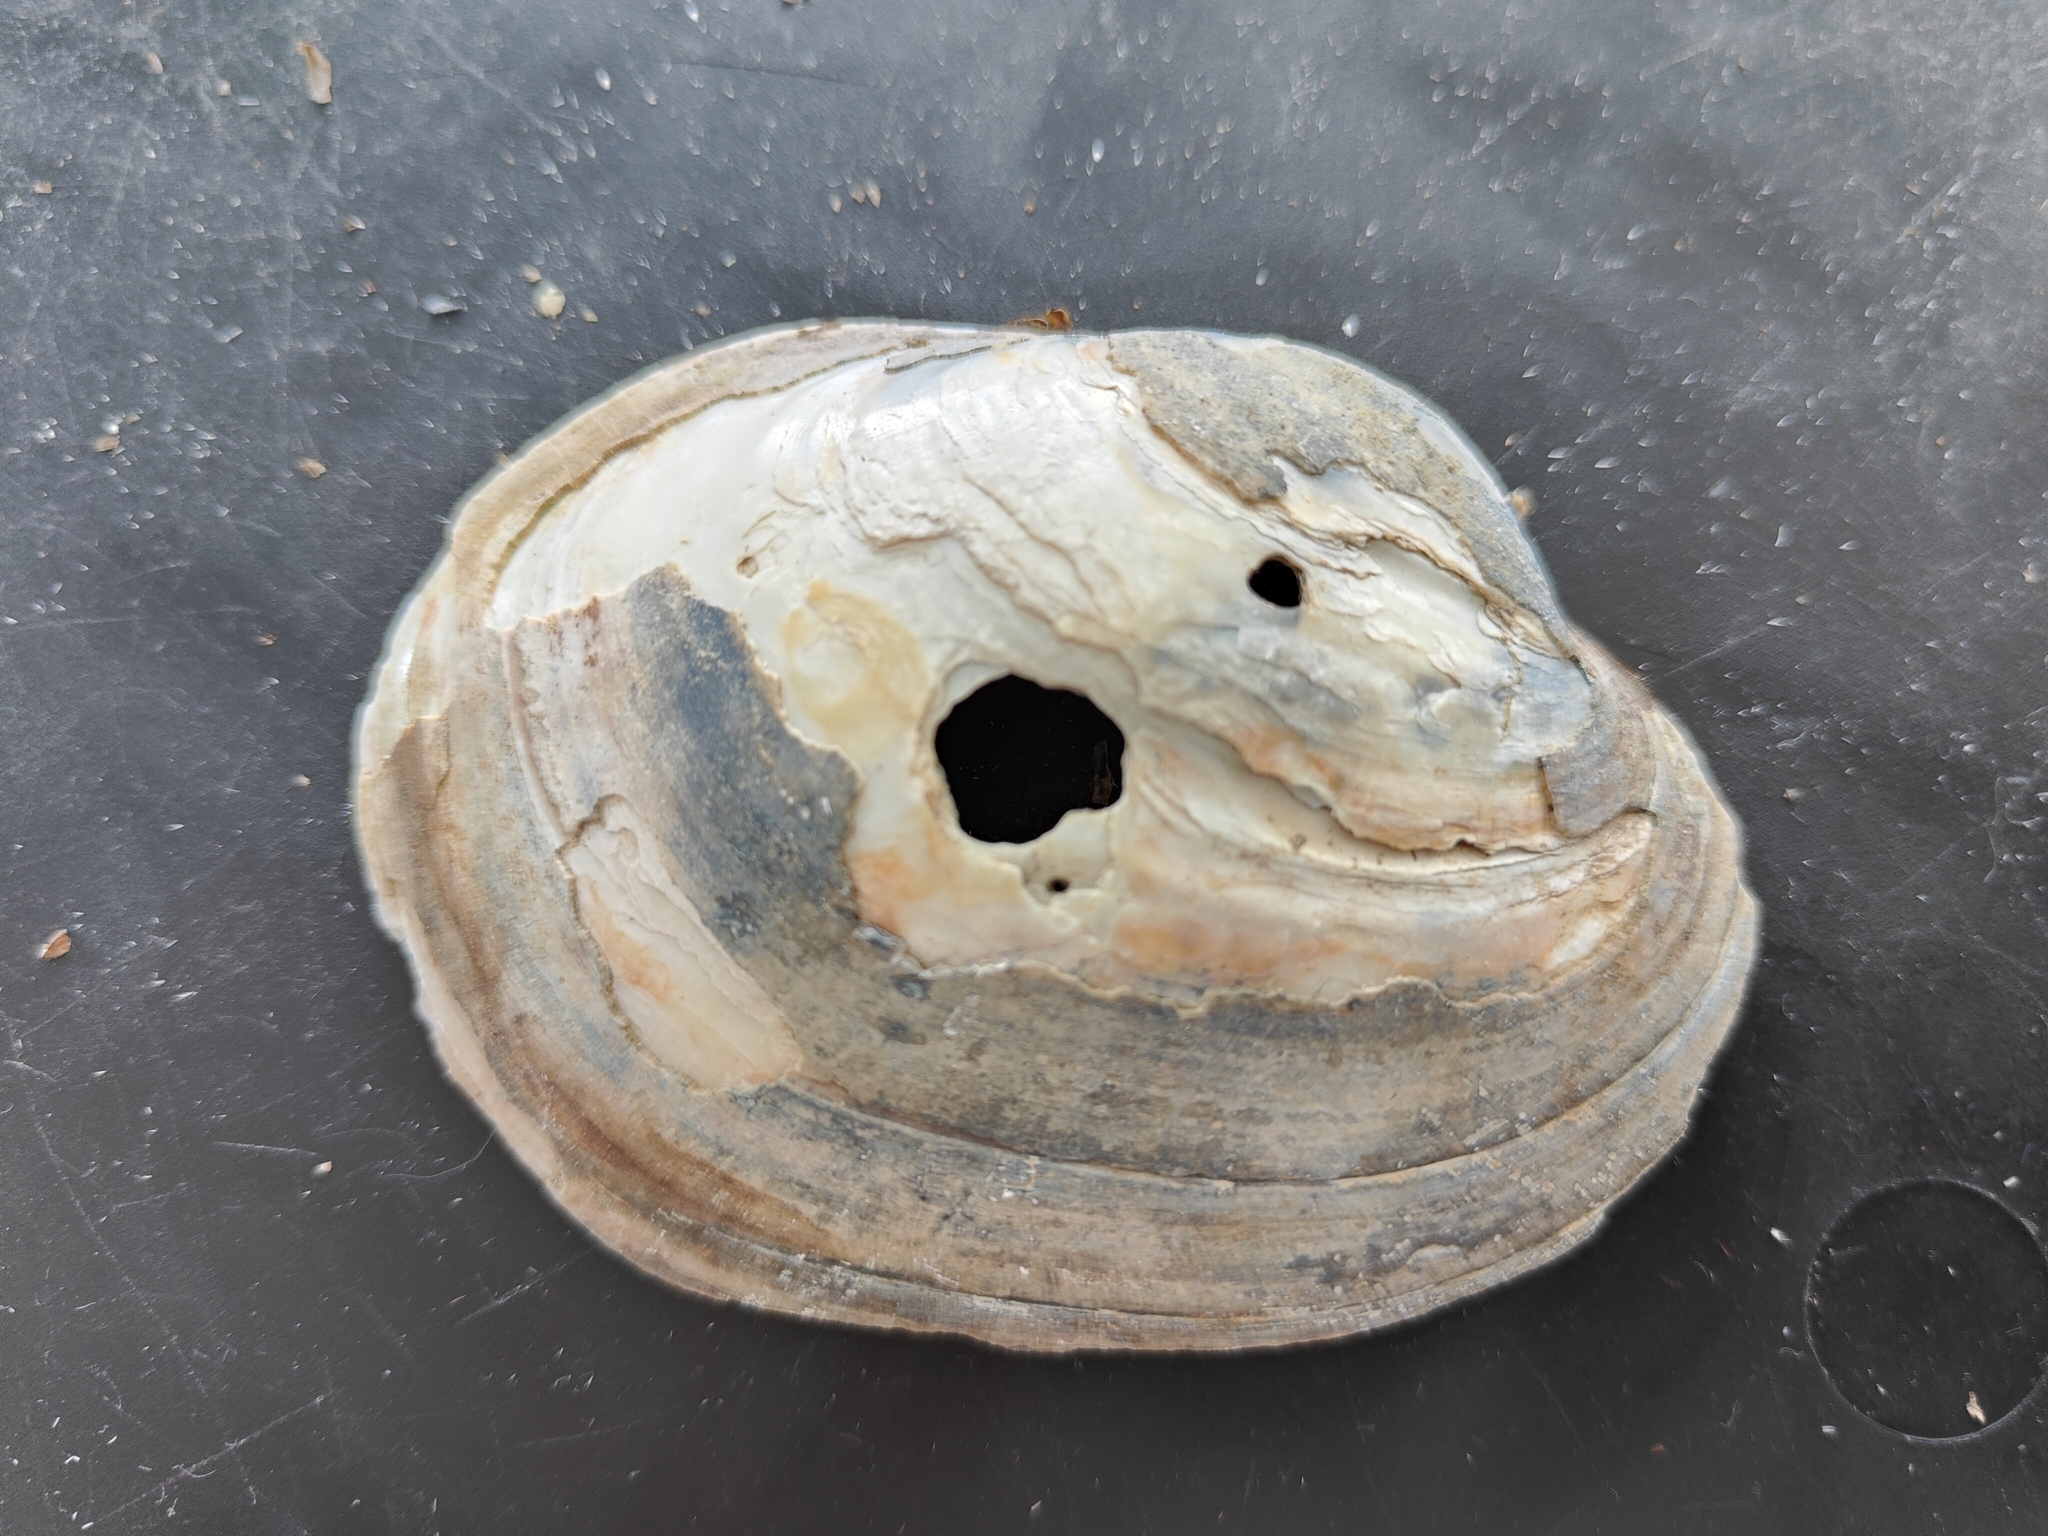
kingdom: Animalia
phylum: Mollusca
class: Bivalvia
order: Unionida
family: Unionidae
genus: Lampsilis
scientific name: Lampsilis cardium
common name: Plain pocketbook
